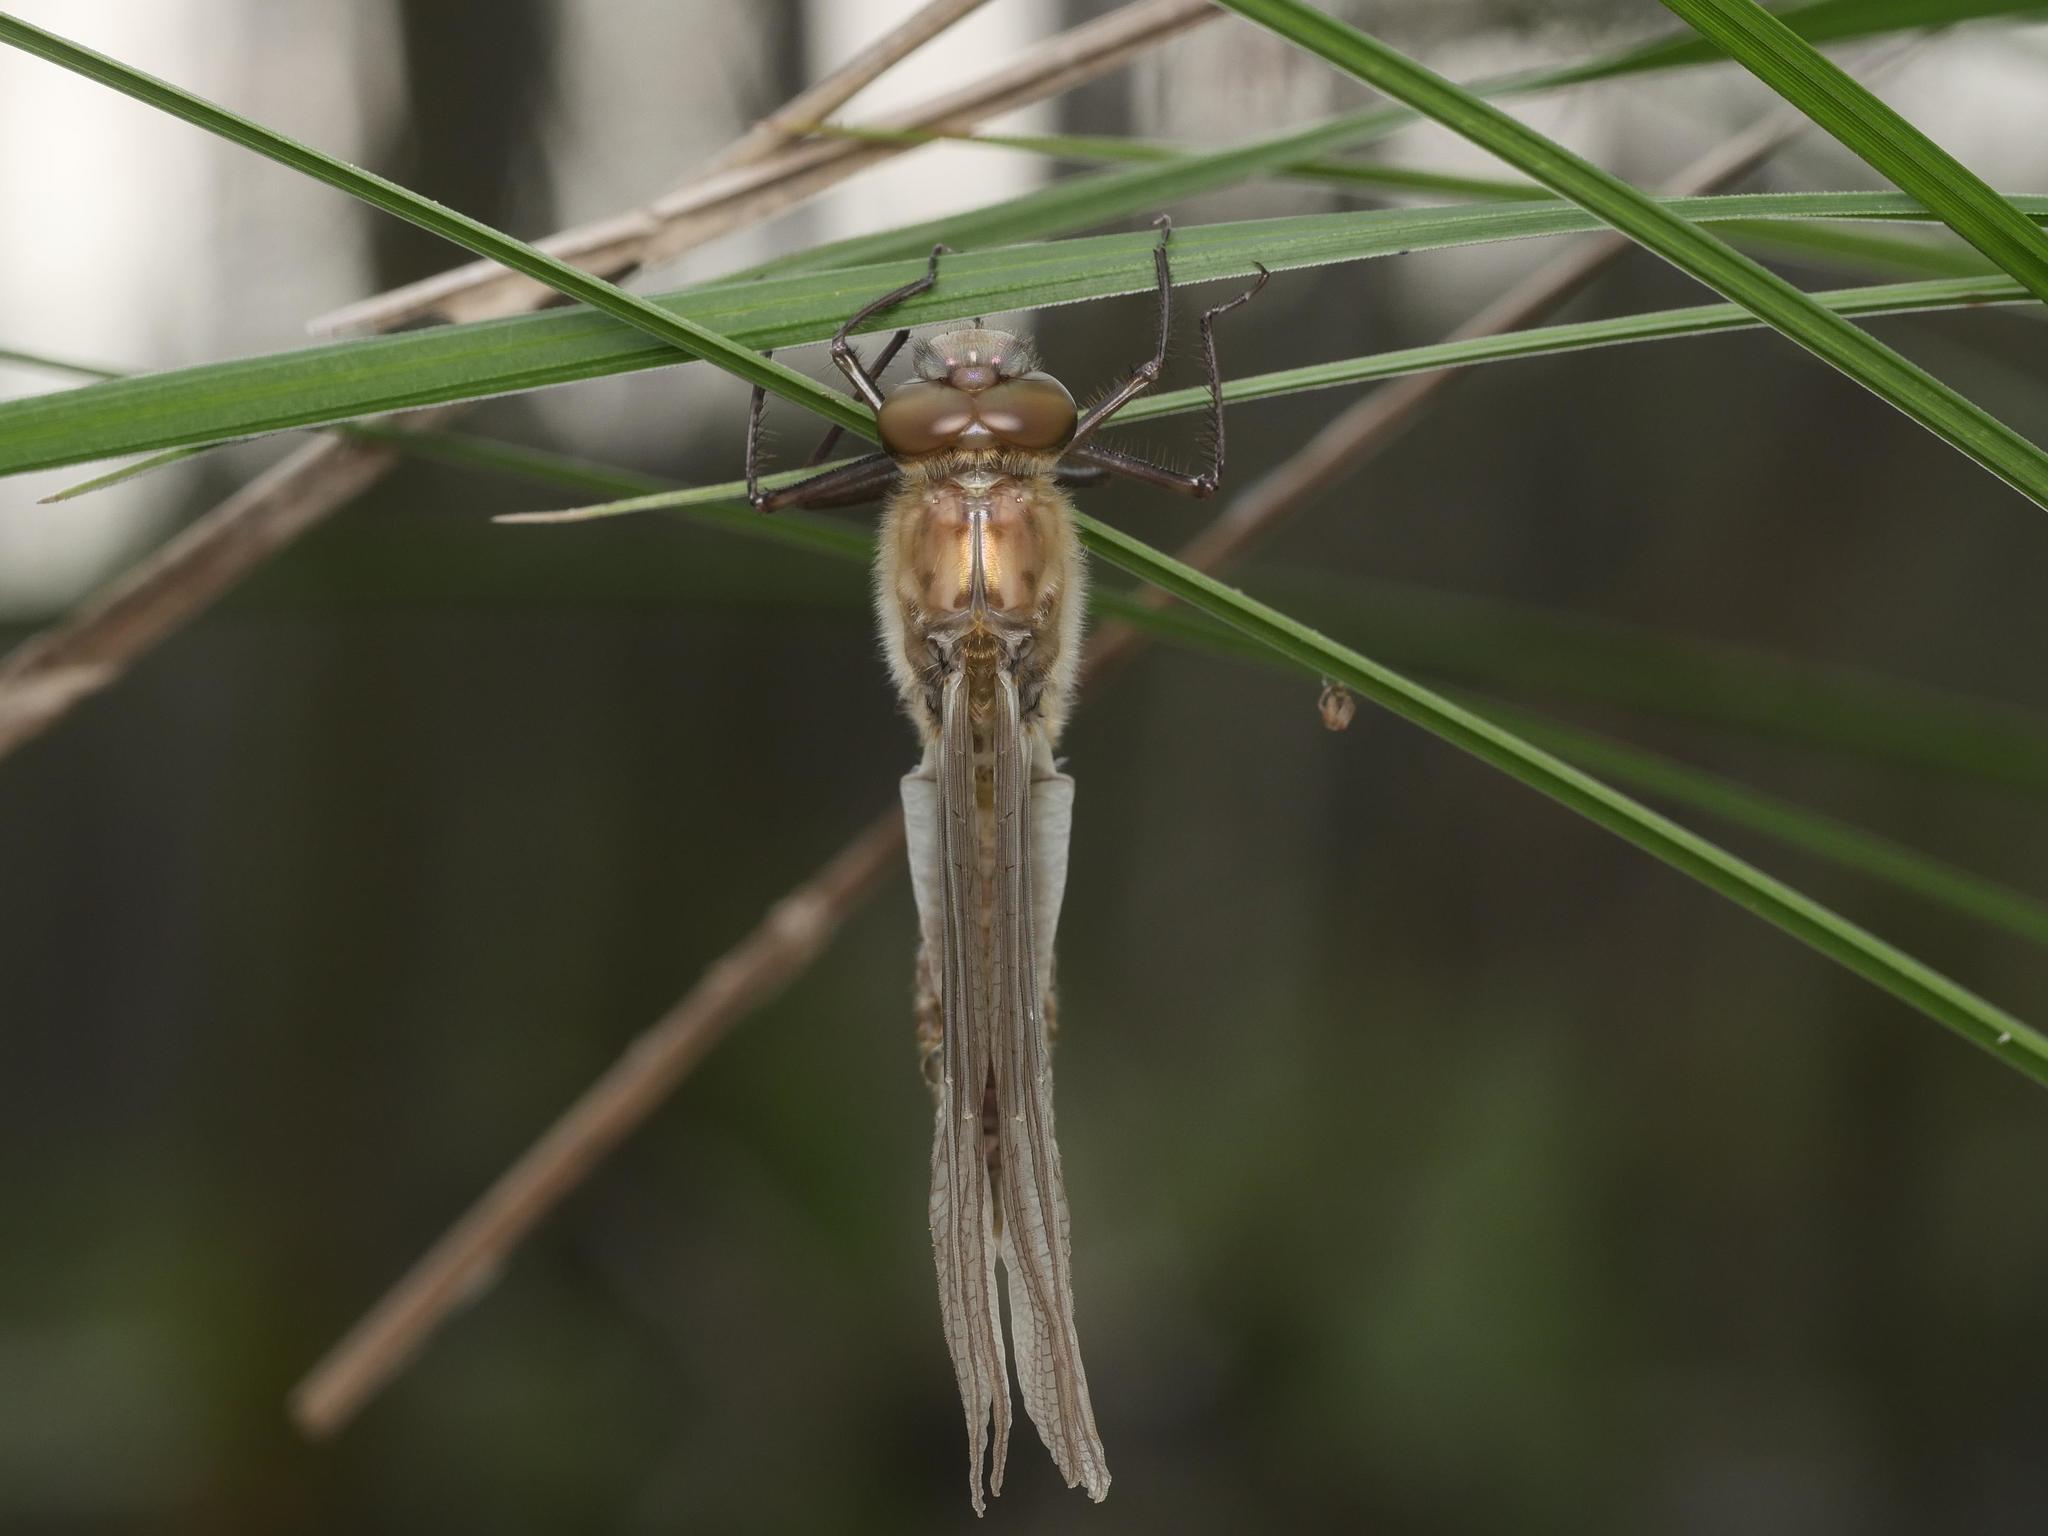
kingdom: Animalia
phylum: Arthropoda
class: Insecta
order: Odonata
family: Corduliidae
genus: Cordulia
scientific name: Cordulia aenea
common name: Downy emerald
